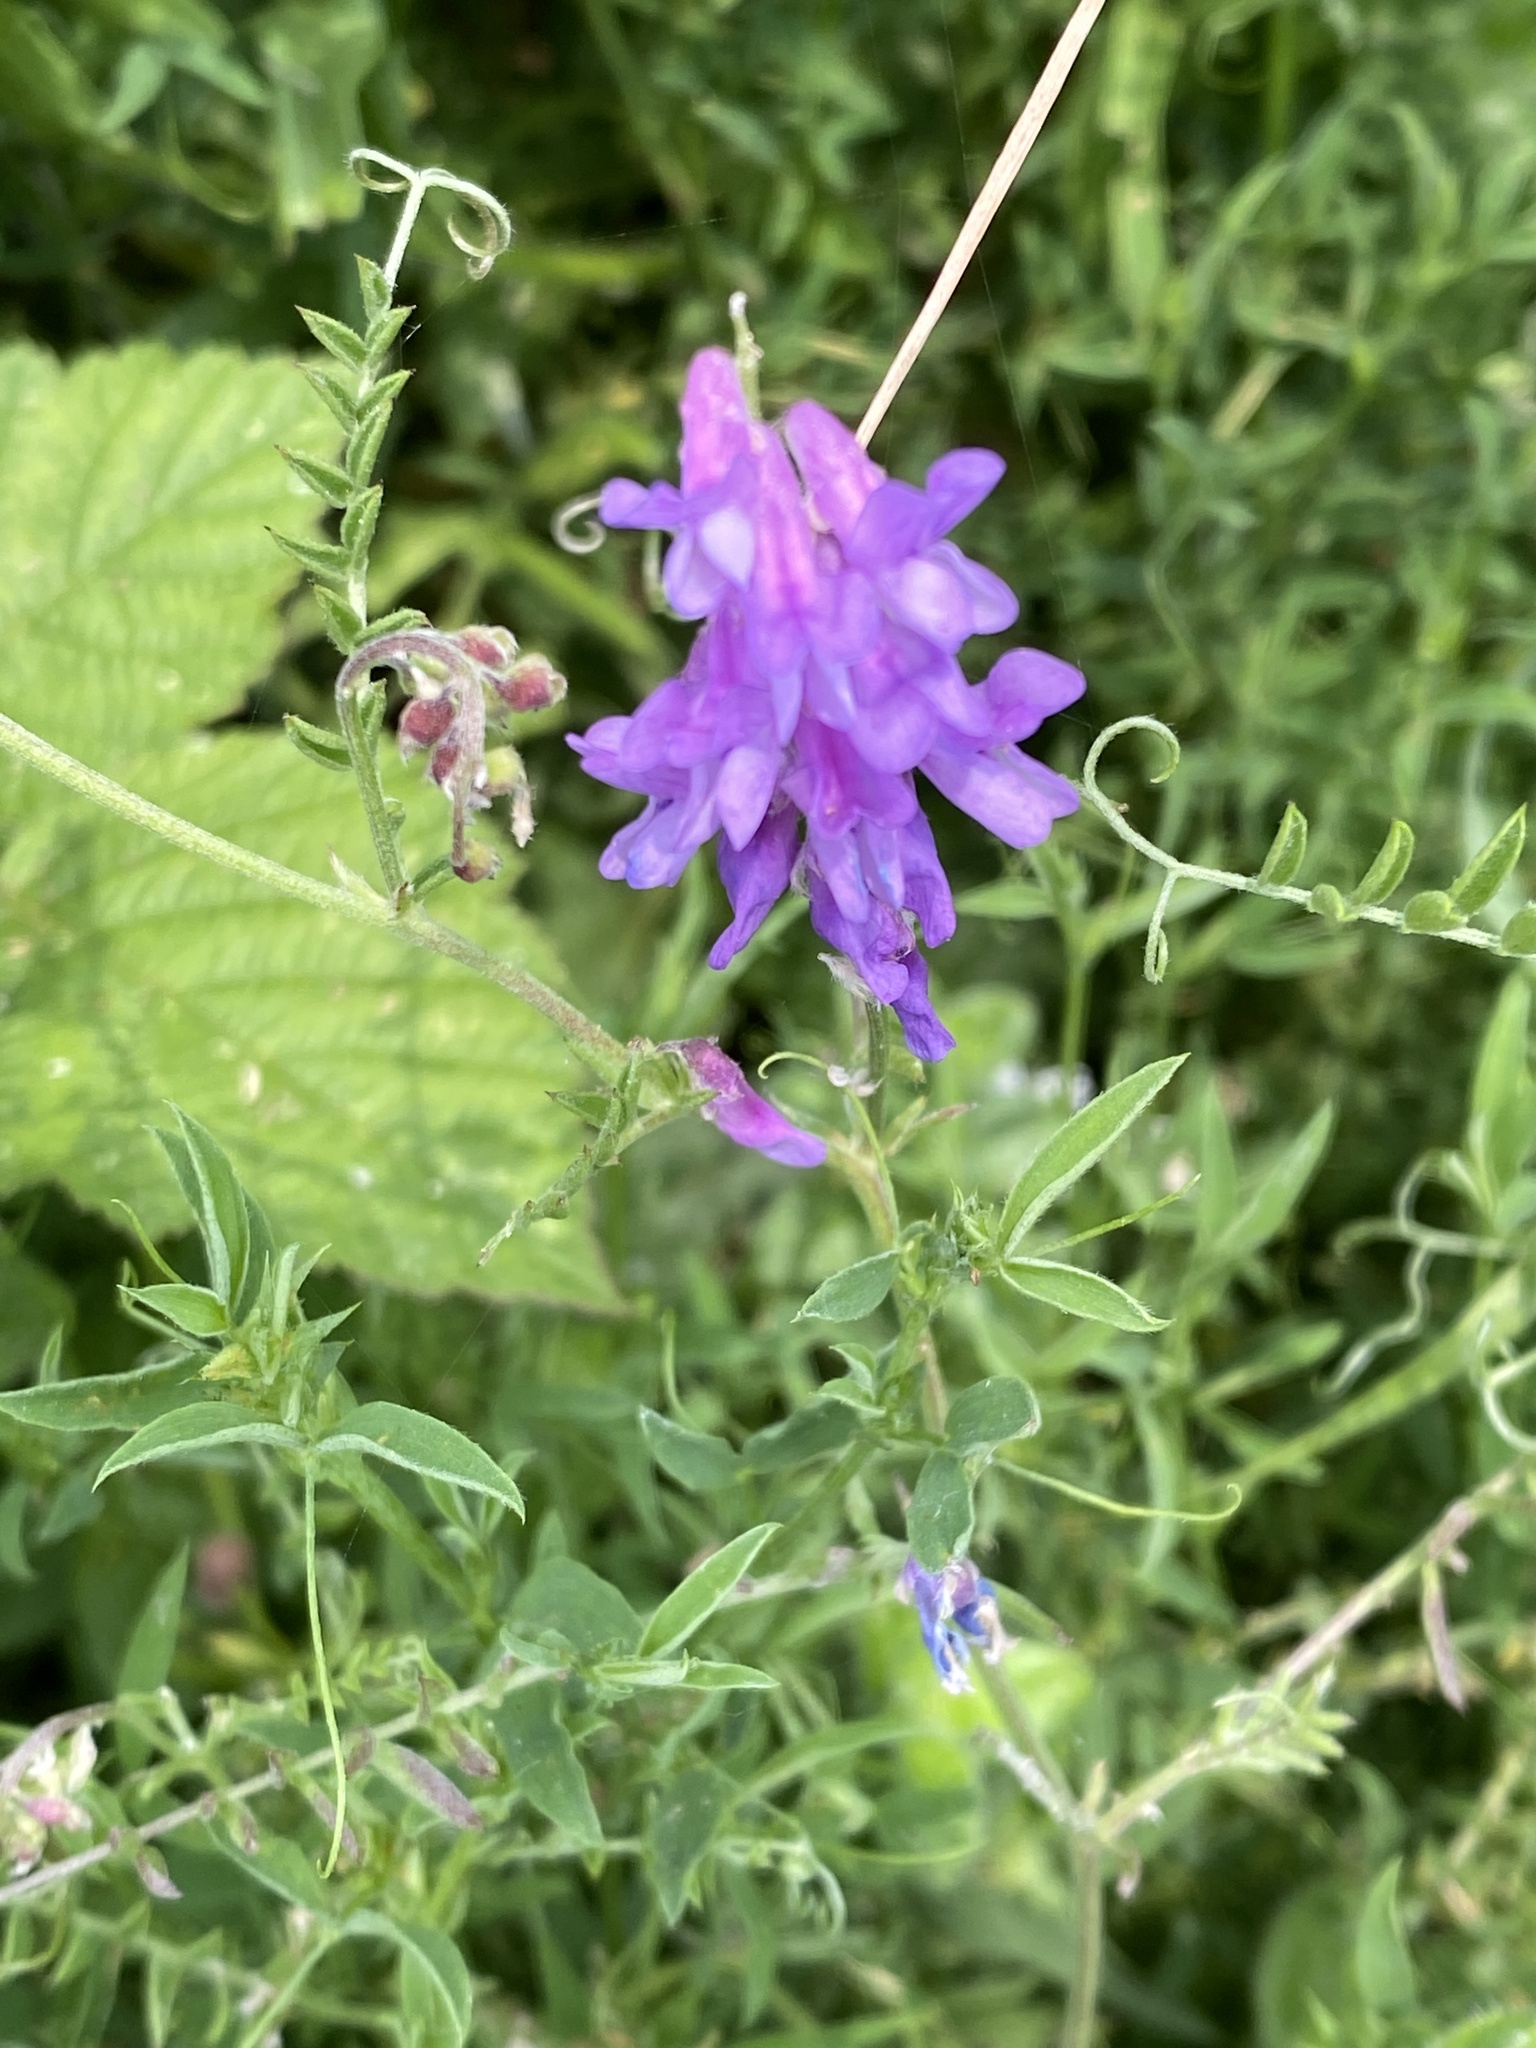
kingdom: Plantae
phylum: Tracheophyta
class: Magnoliopsida
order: Fabales
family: Fabaceae
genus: Vicia
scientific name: Vicia cracca
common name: Bird vetch
